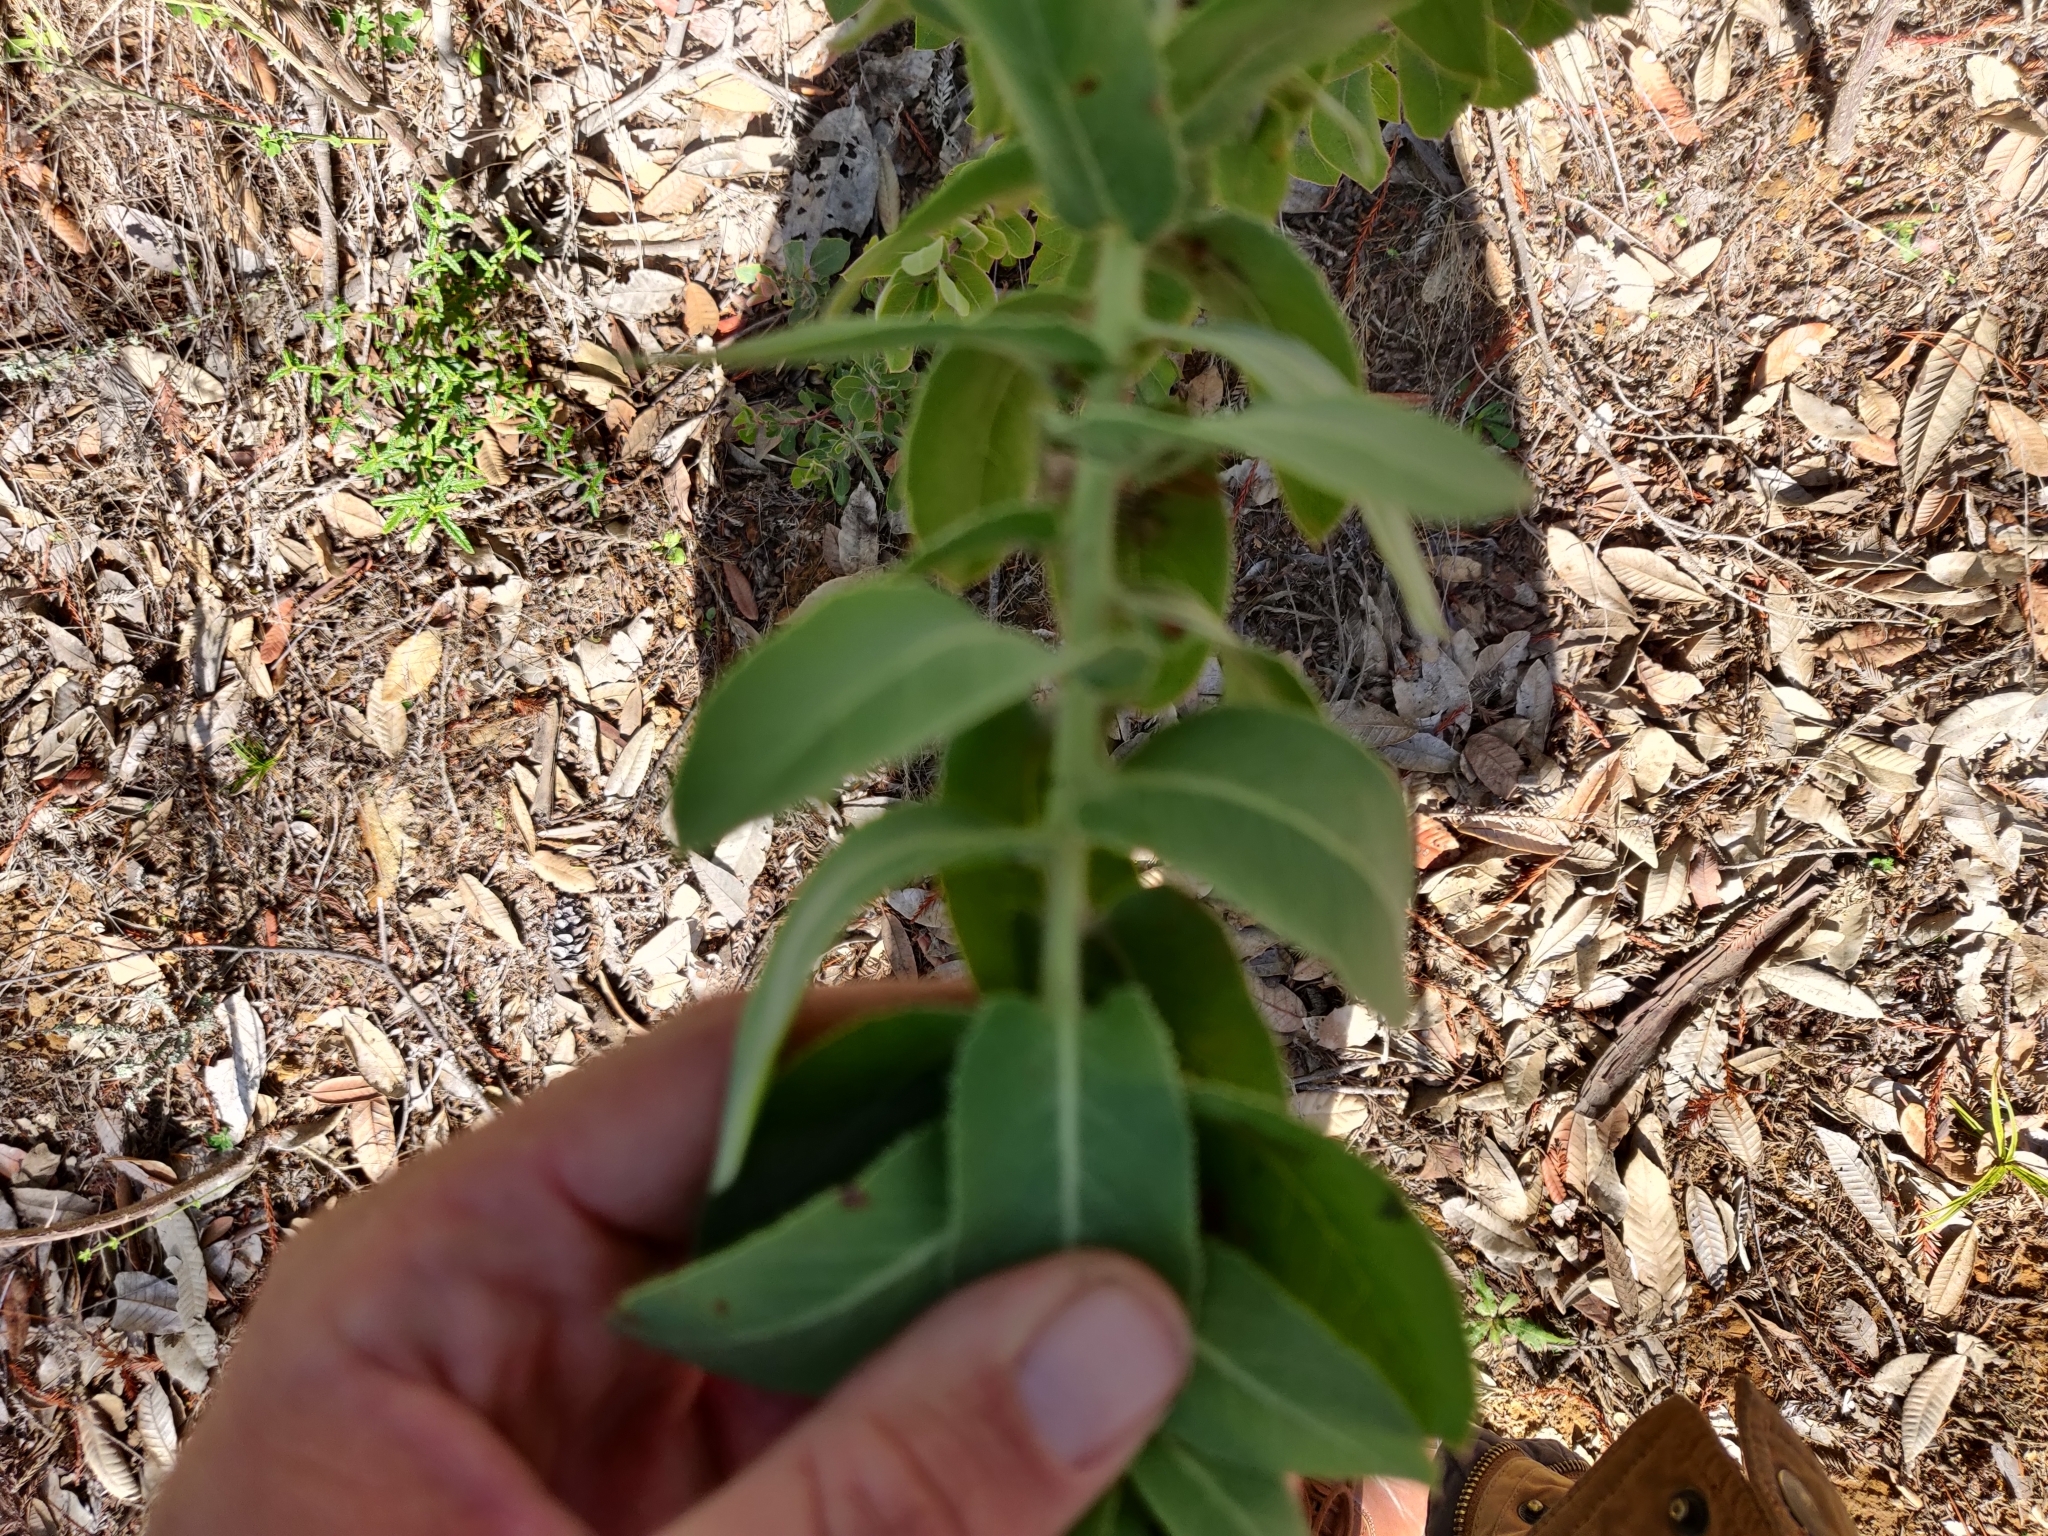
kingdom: Plantae
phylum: Tracheophyta
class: Magnoliopsida
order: Ericales
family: Ericaceae
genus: Arctostaphylos
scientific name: Arctostaphylos andersonii
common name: Santa cruz manzanita
